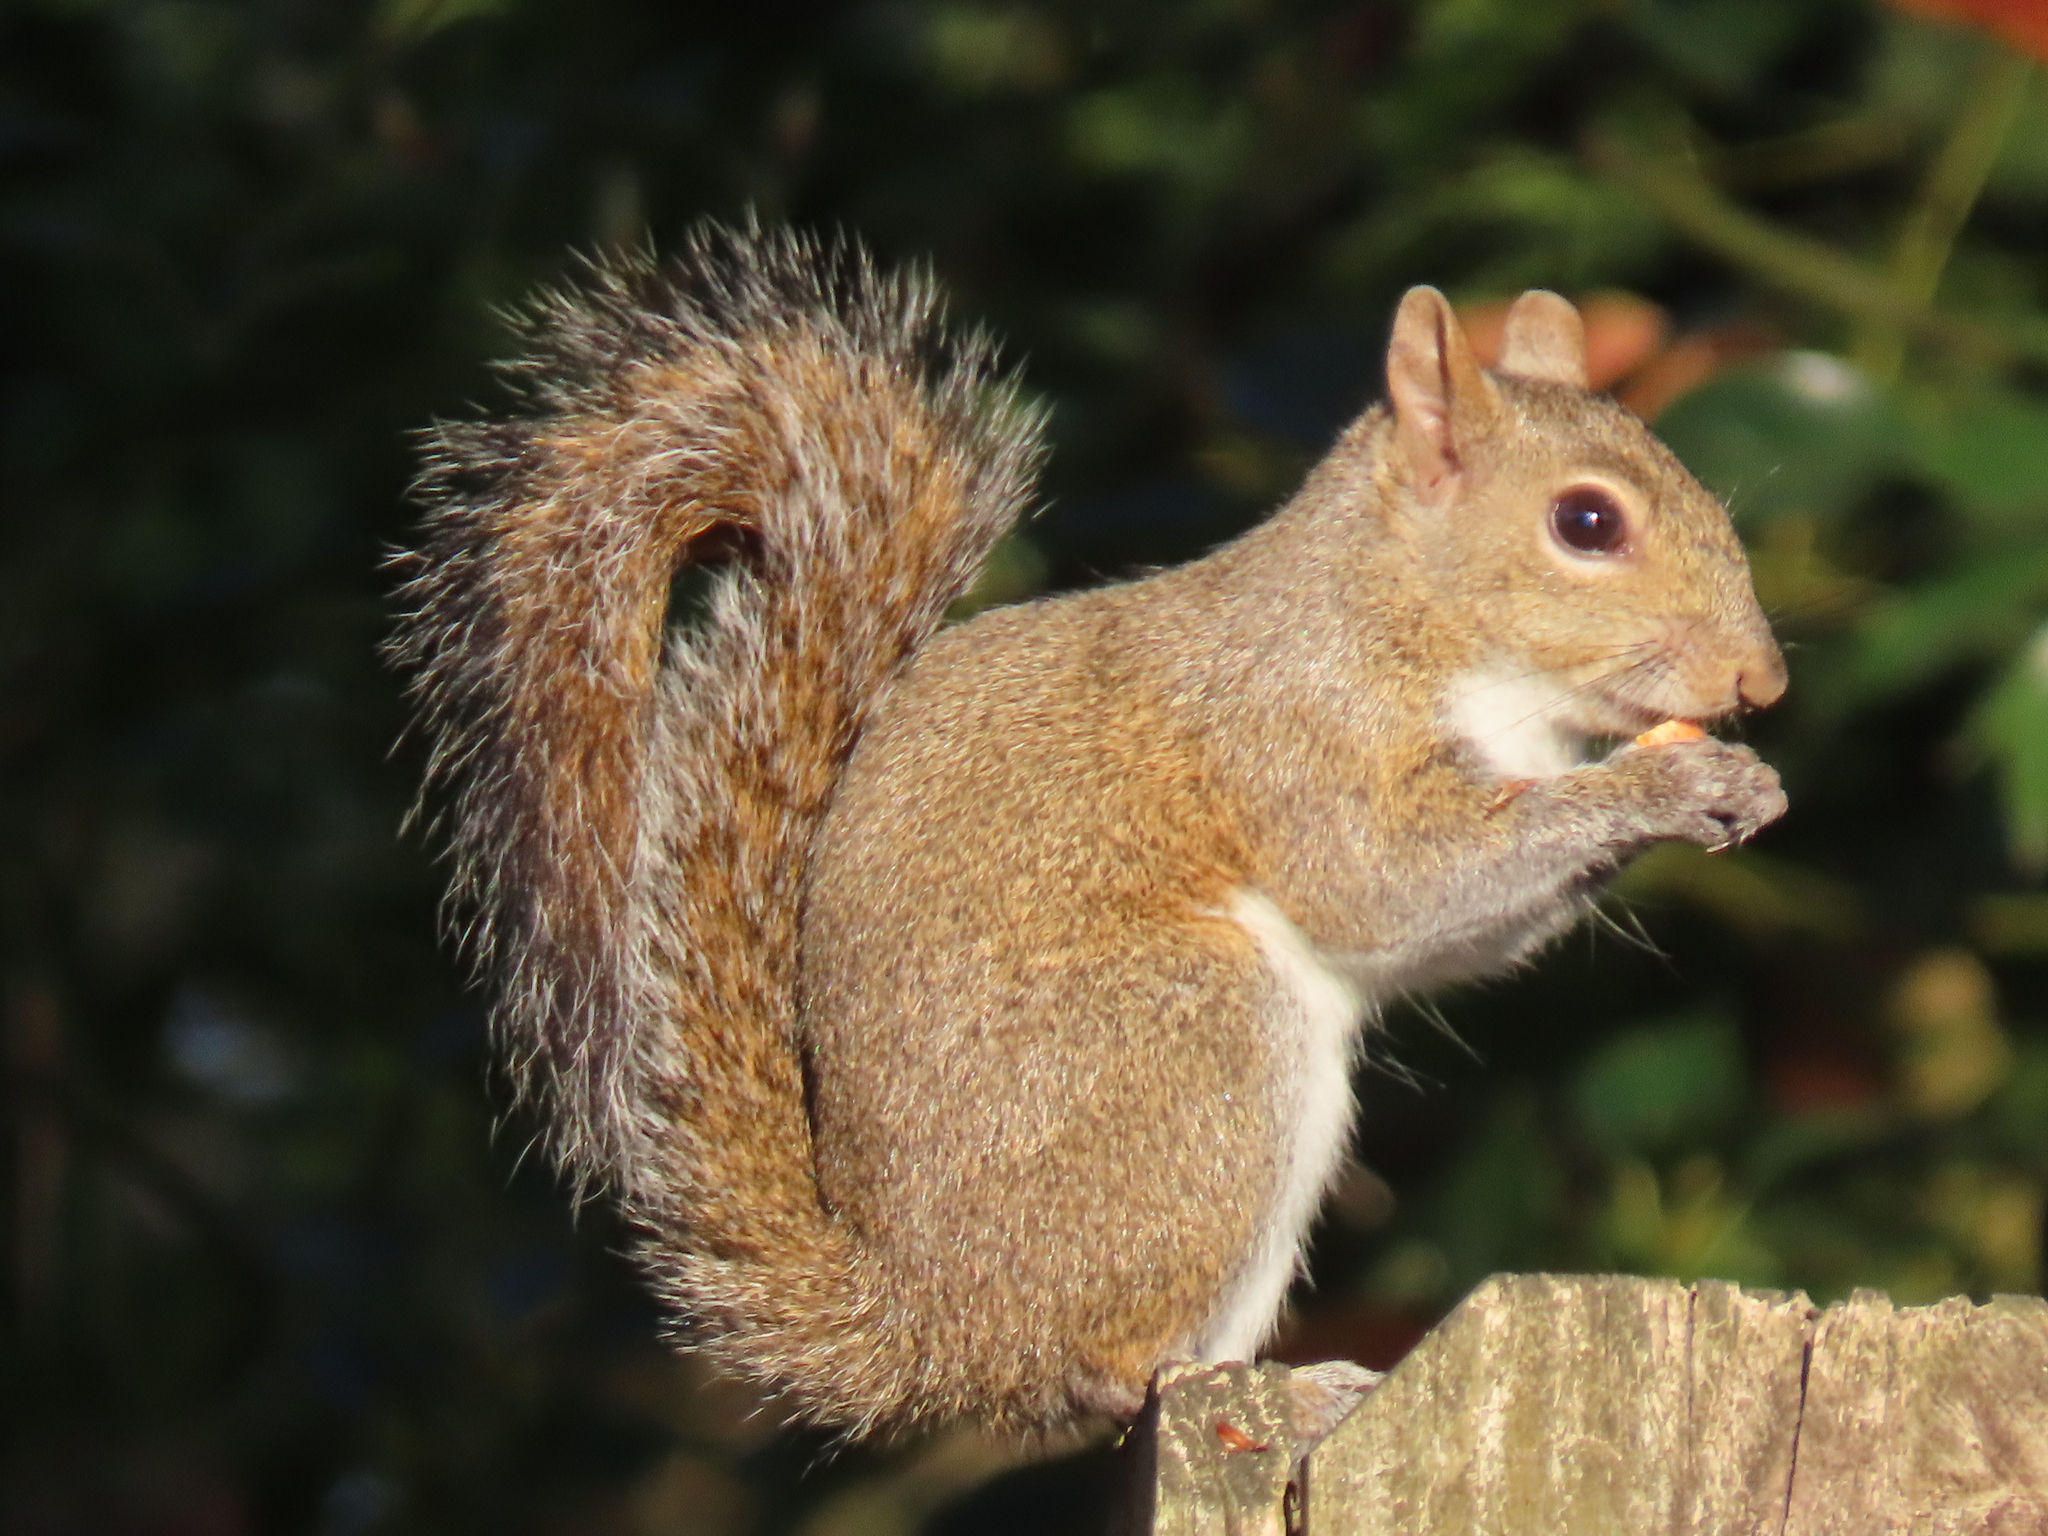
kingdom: Animalia
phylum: Chordata
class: Mammalia
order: Rodentia
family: Sciuridae
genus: Sciurus
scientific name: Sciurus carolinensis
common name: Eastern gray squirrel
